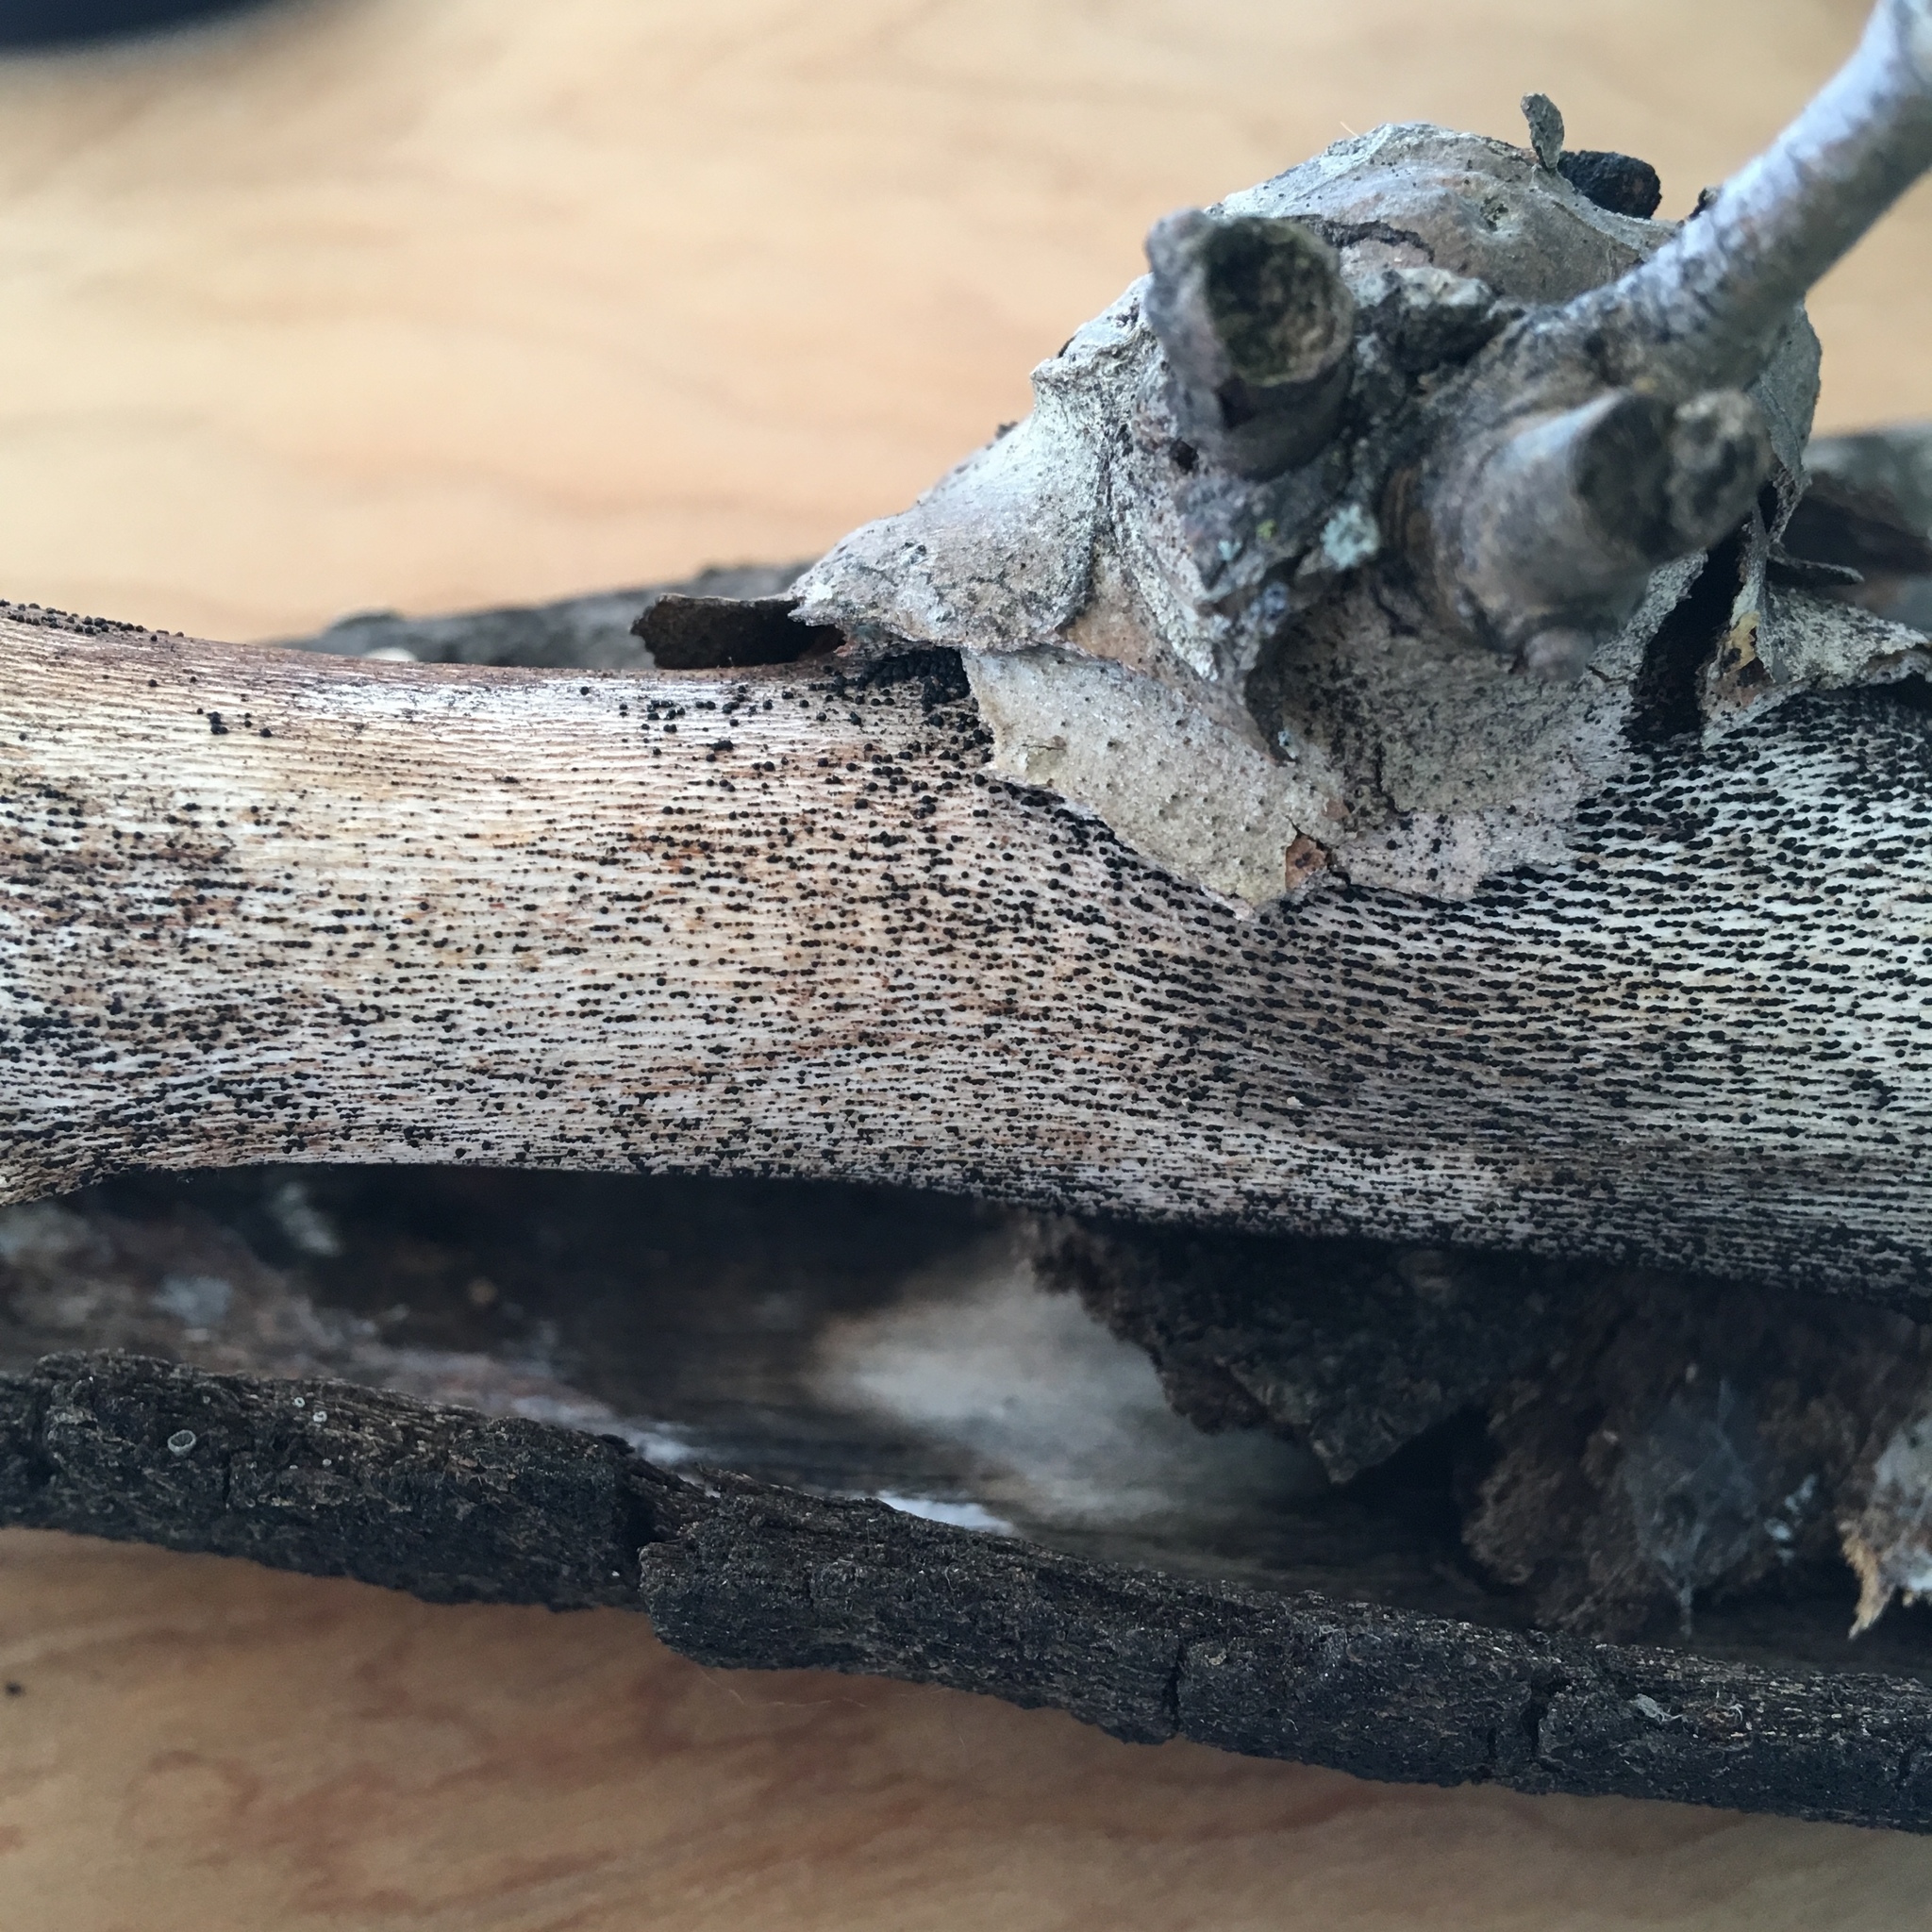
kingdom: Fungi
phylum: Ascomycota
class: Dothideomycetes
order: Pleosporales
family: Macrodiplodiopsidaceae
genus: Macrodiplodiopsis
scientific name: Macrodiplodiopsis desmazieri
